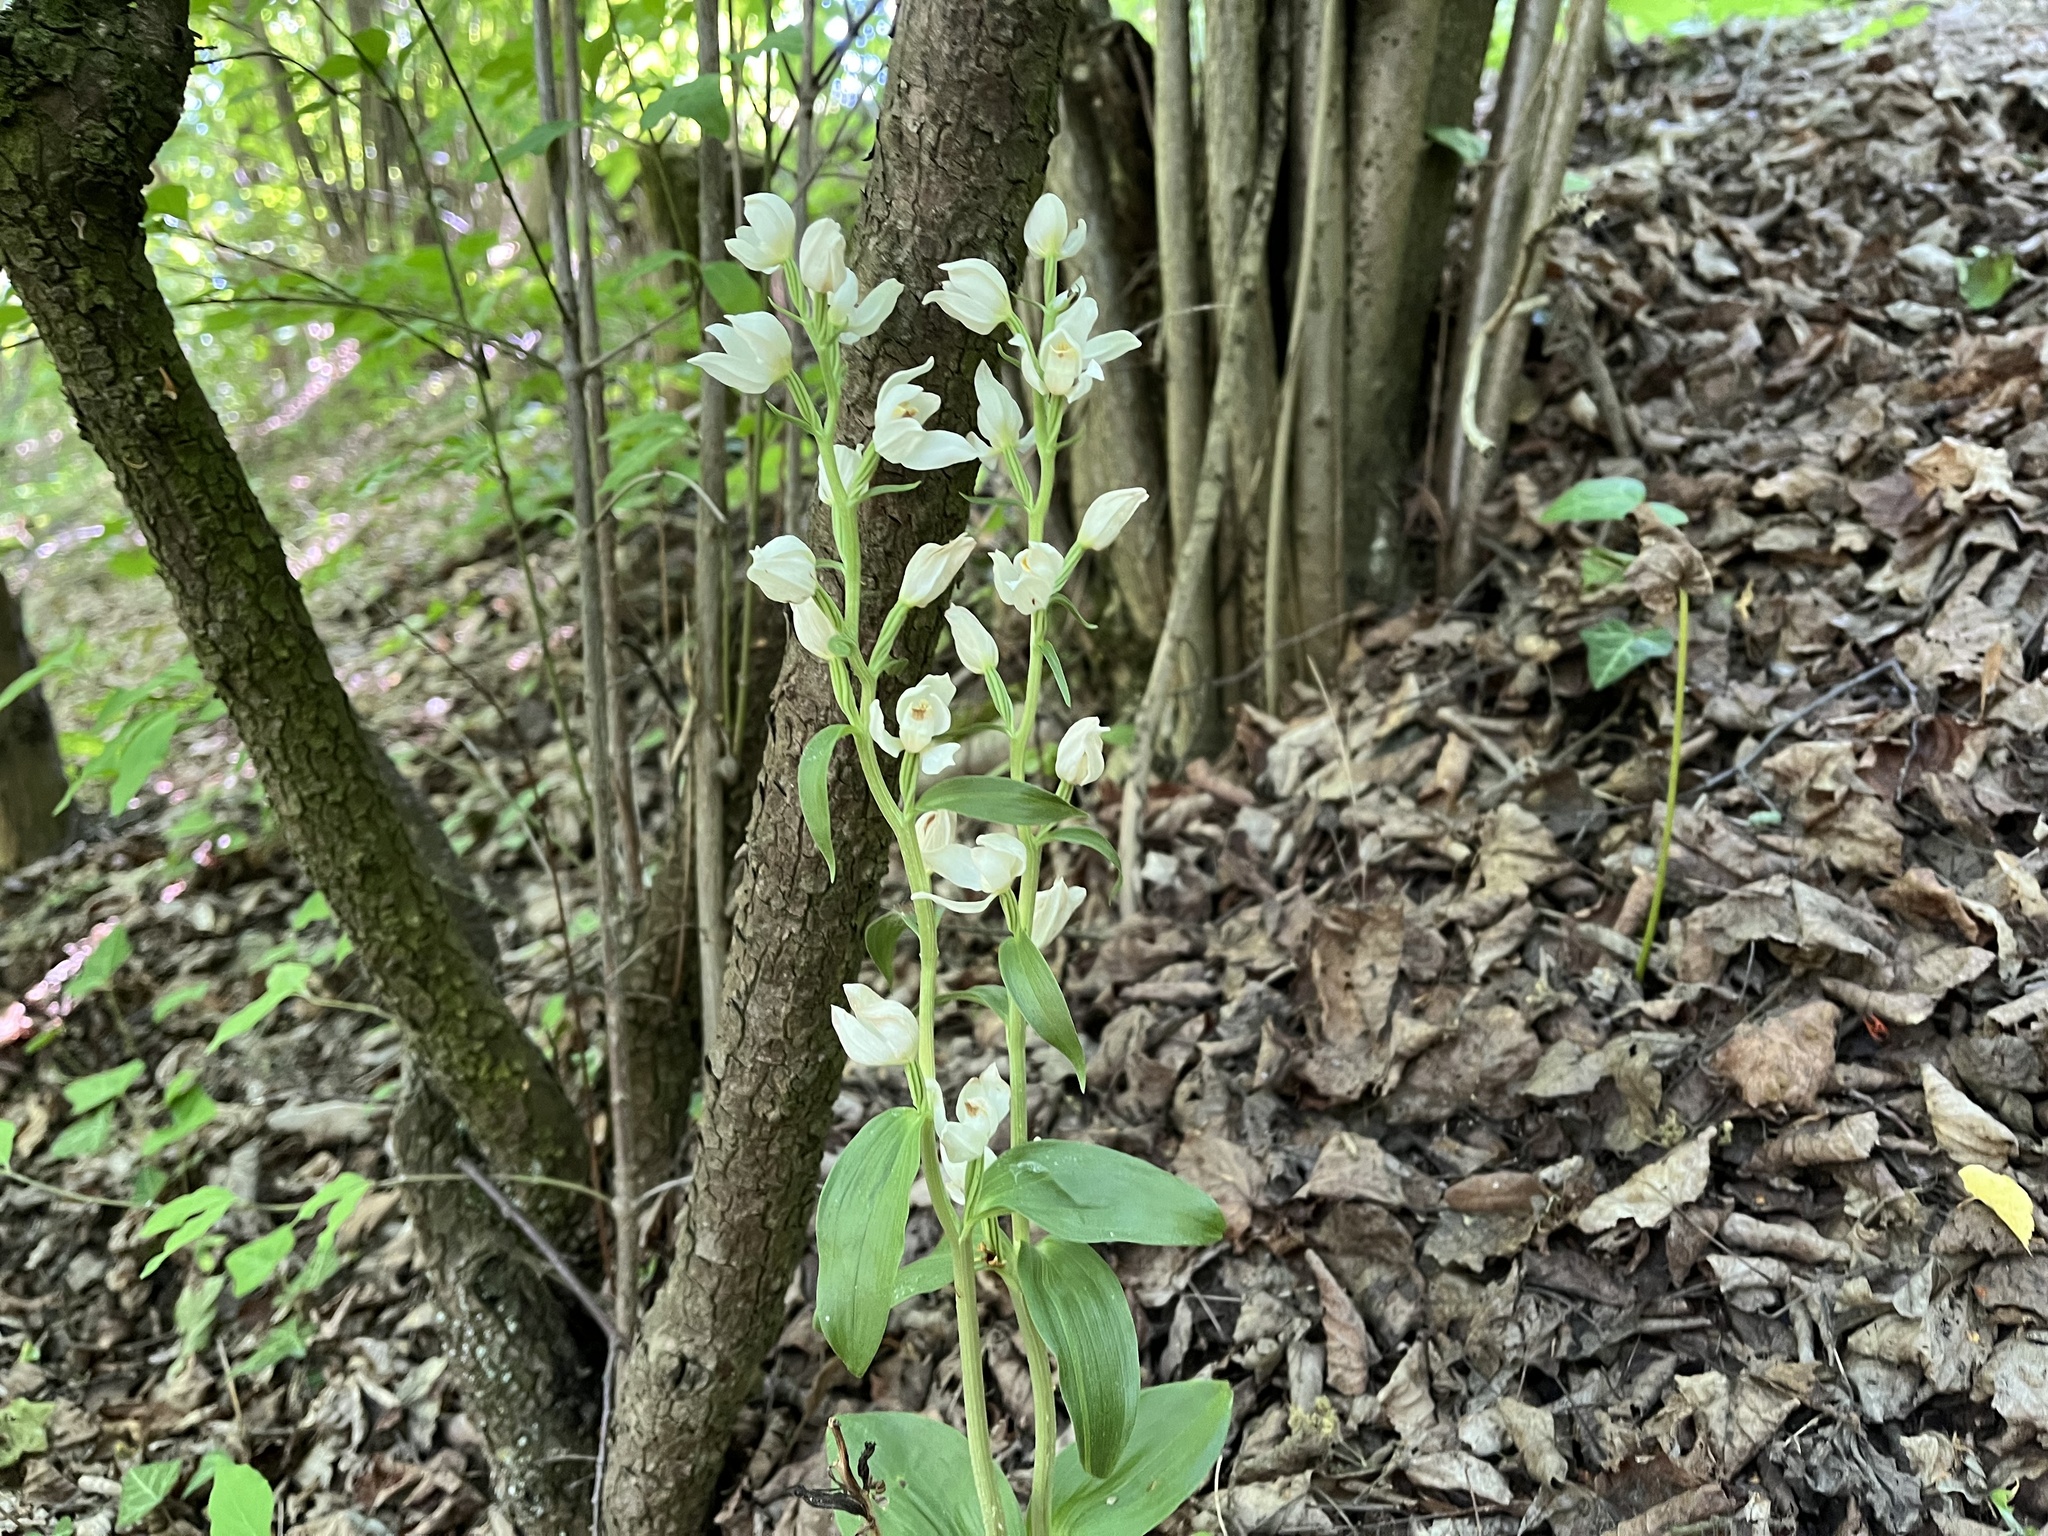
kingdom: Plantae
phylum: Tracheophyta
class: Liliopsida
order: Asparagales
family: Orchidaceae
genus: Cephalanthera
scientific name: Cephalanthera damasonium
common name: White helleborine
